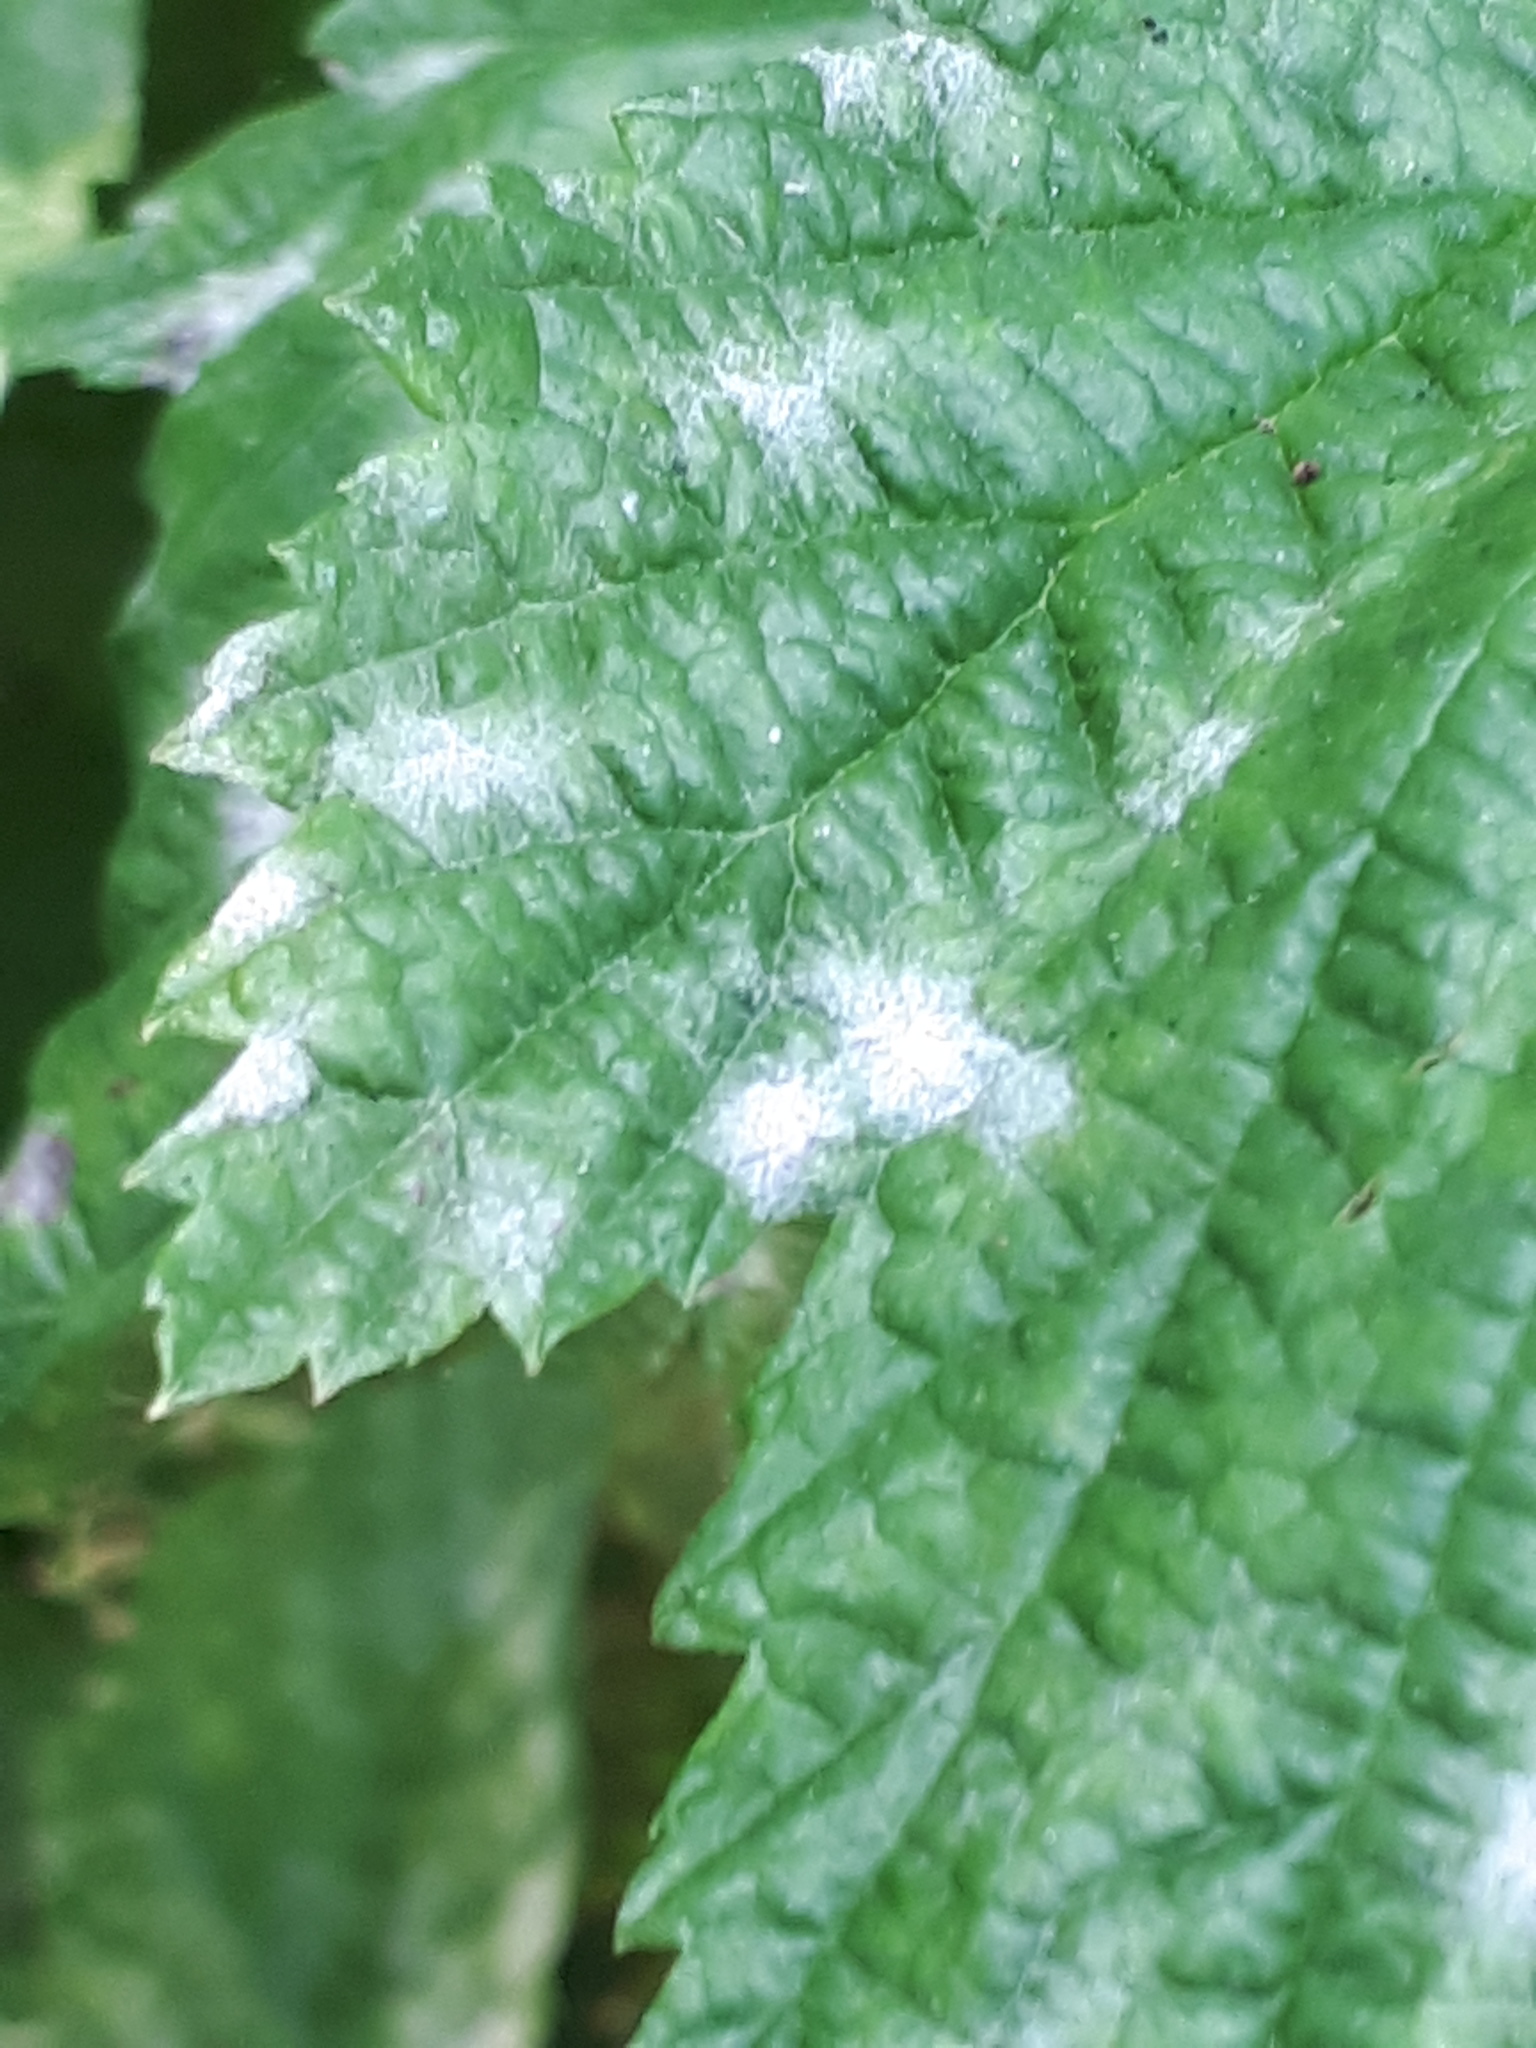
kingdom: Fungi
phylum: Ascomycota
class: Leotiomycetes
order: Helotiales
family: Erysiphaceae
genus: Podosphaera
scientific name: Podosphaera filipendulae
